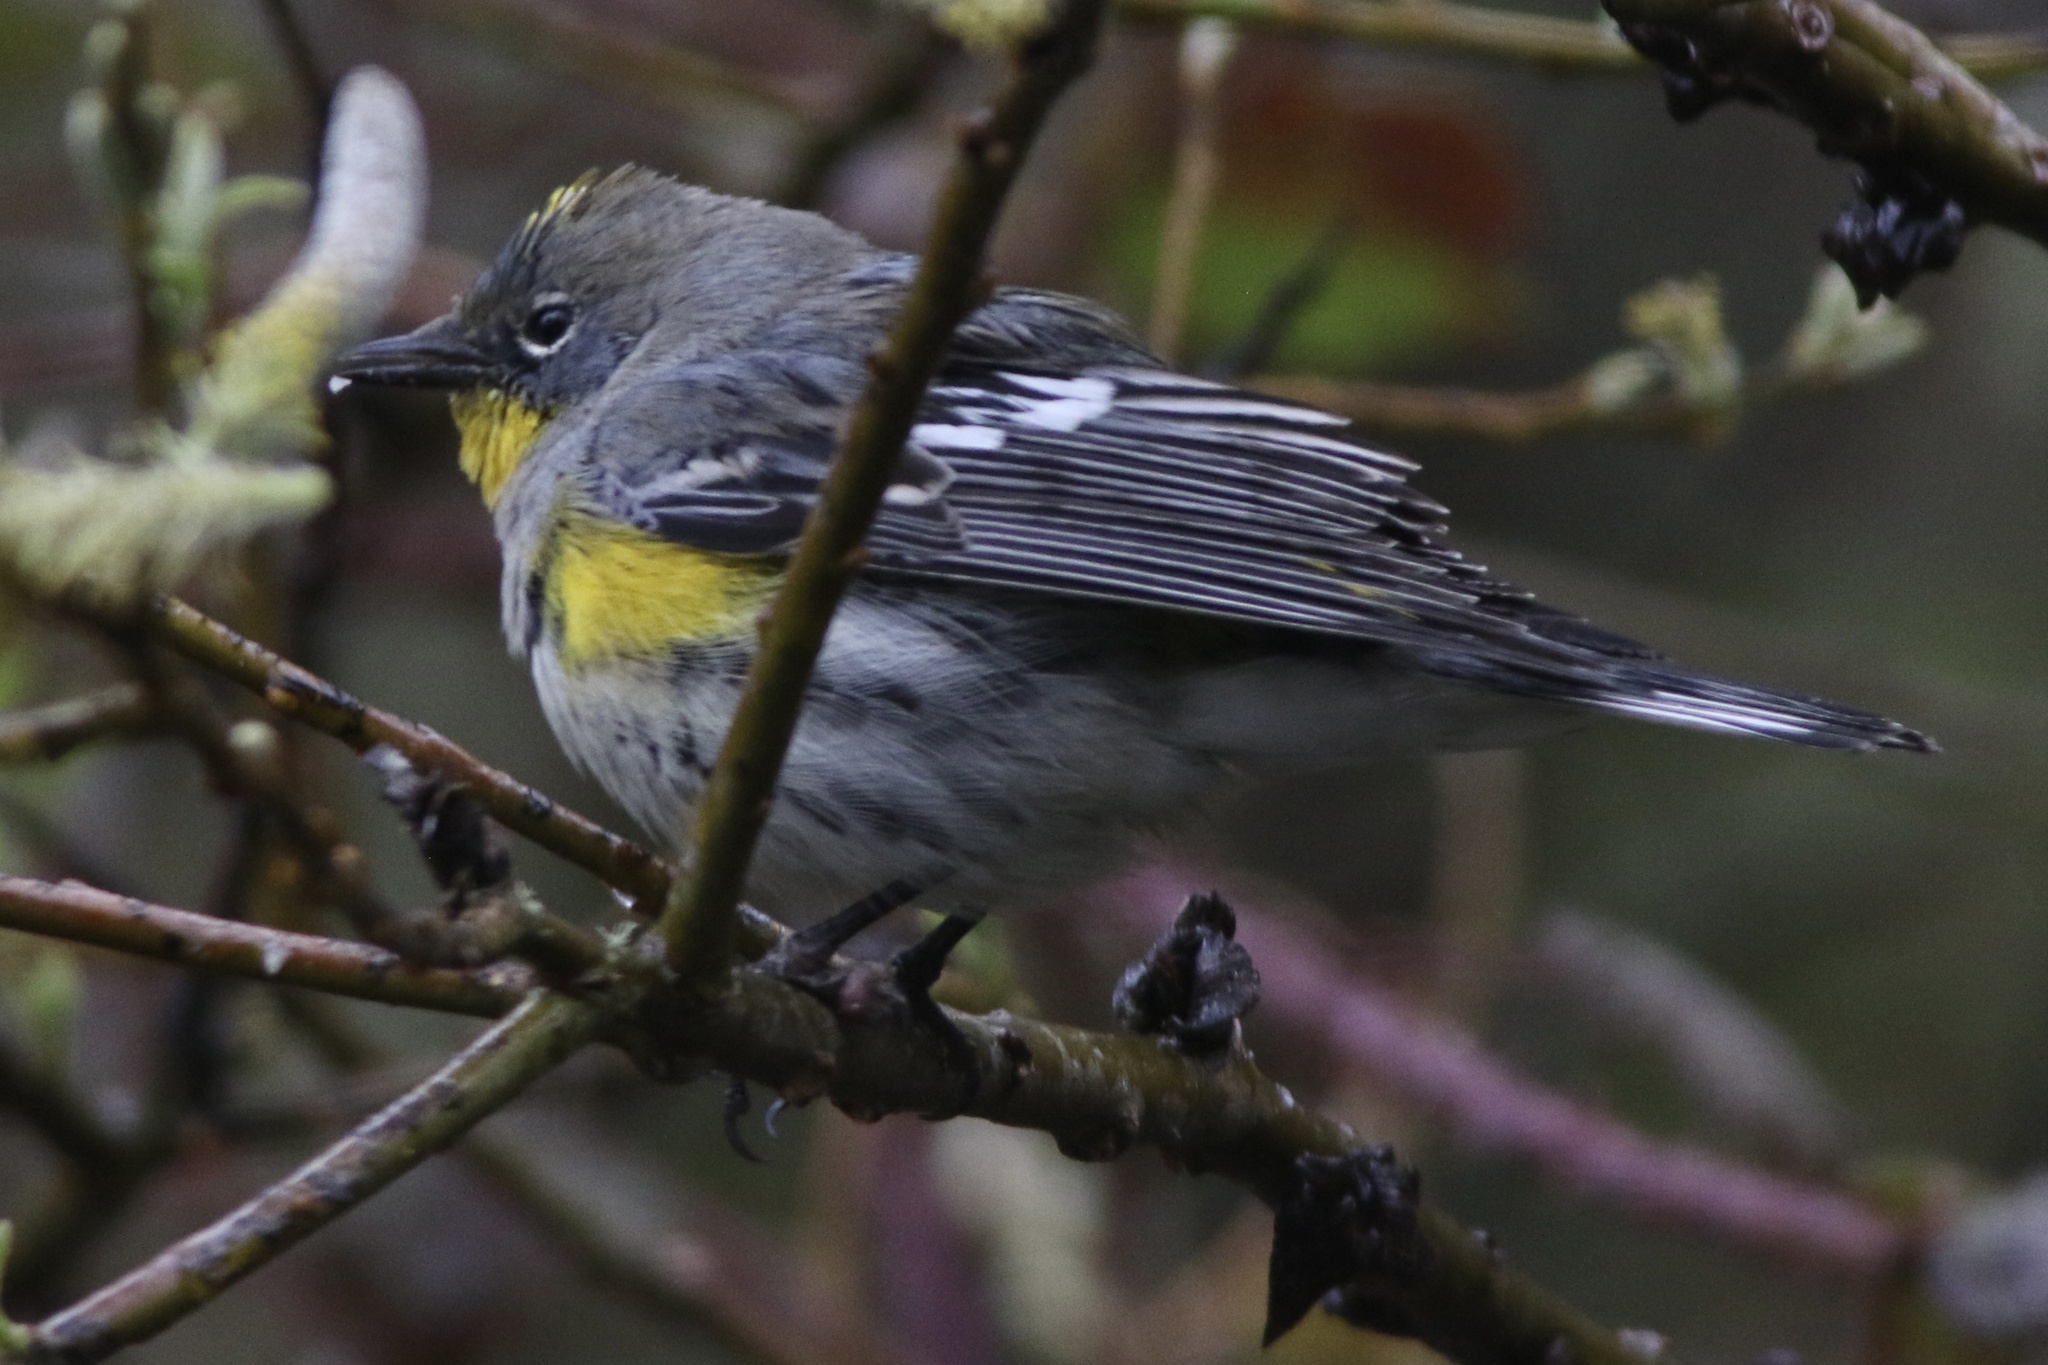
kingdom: Animalia
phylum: Chordata
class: Aves
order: Passeriformes
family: Parulidae
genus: Setophaga
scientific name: Setophaga coronata
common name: Myrtle warbler
